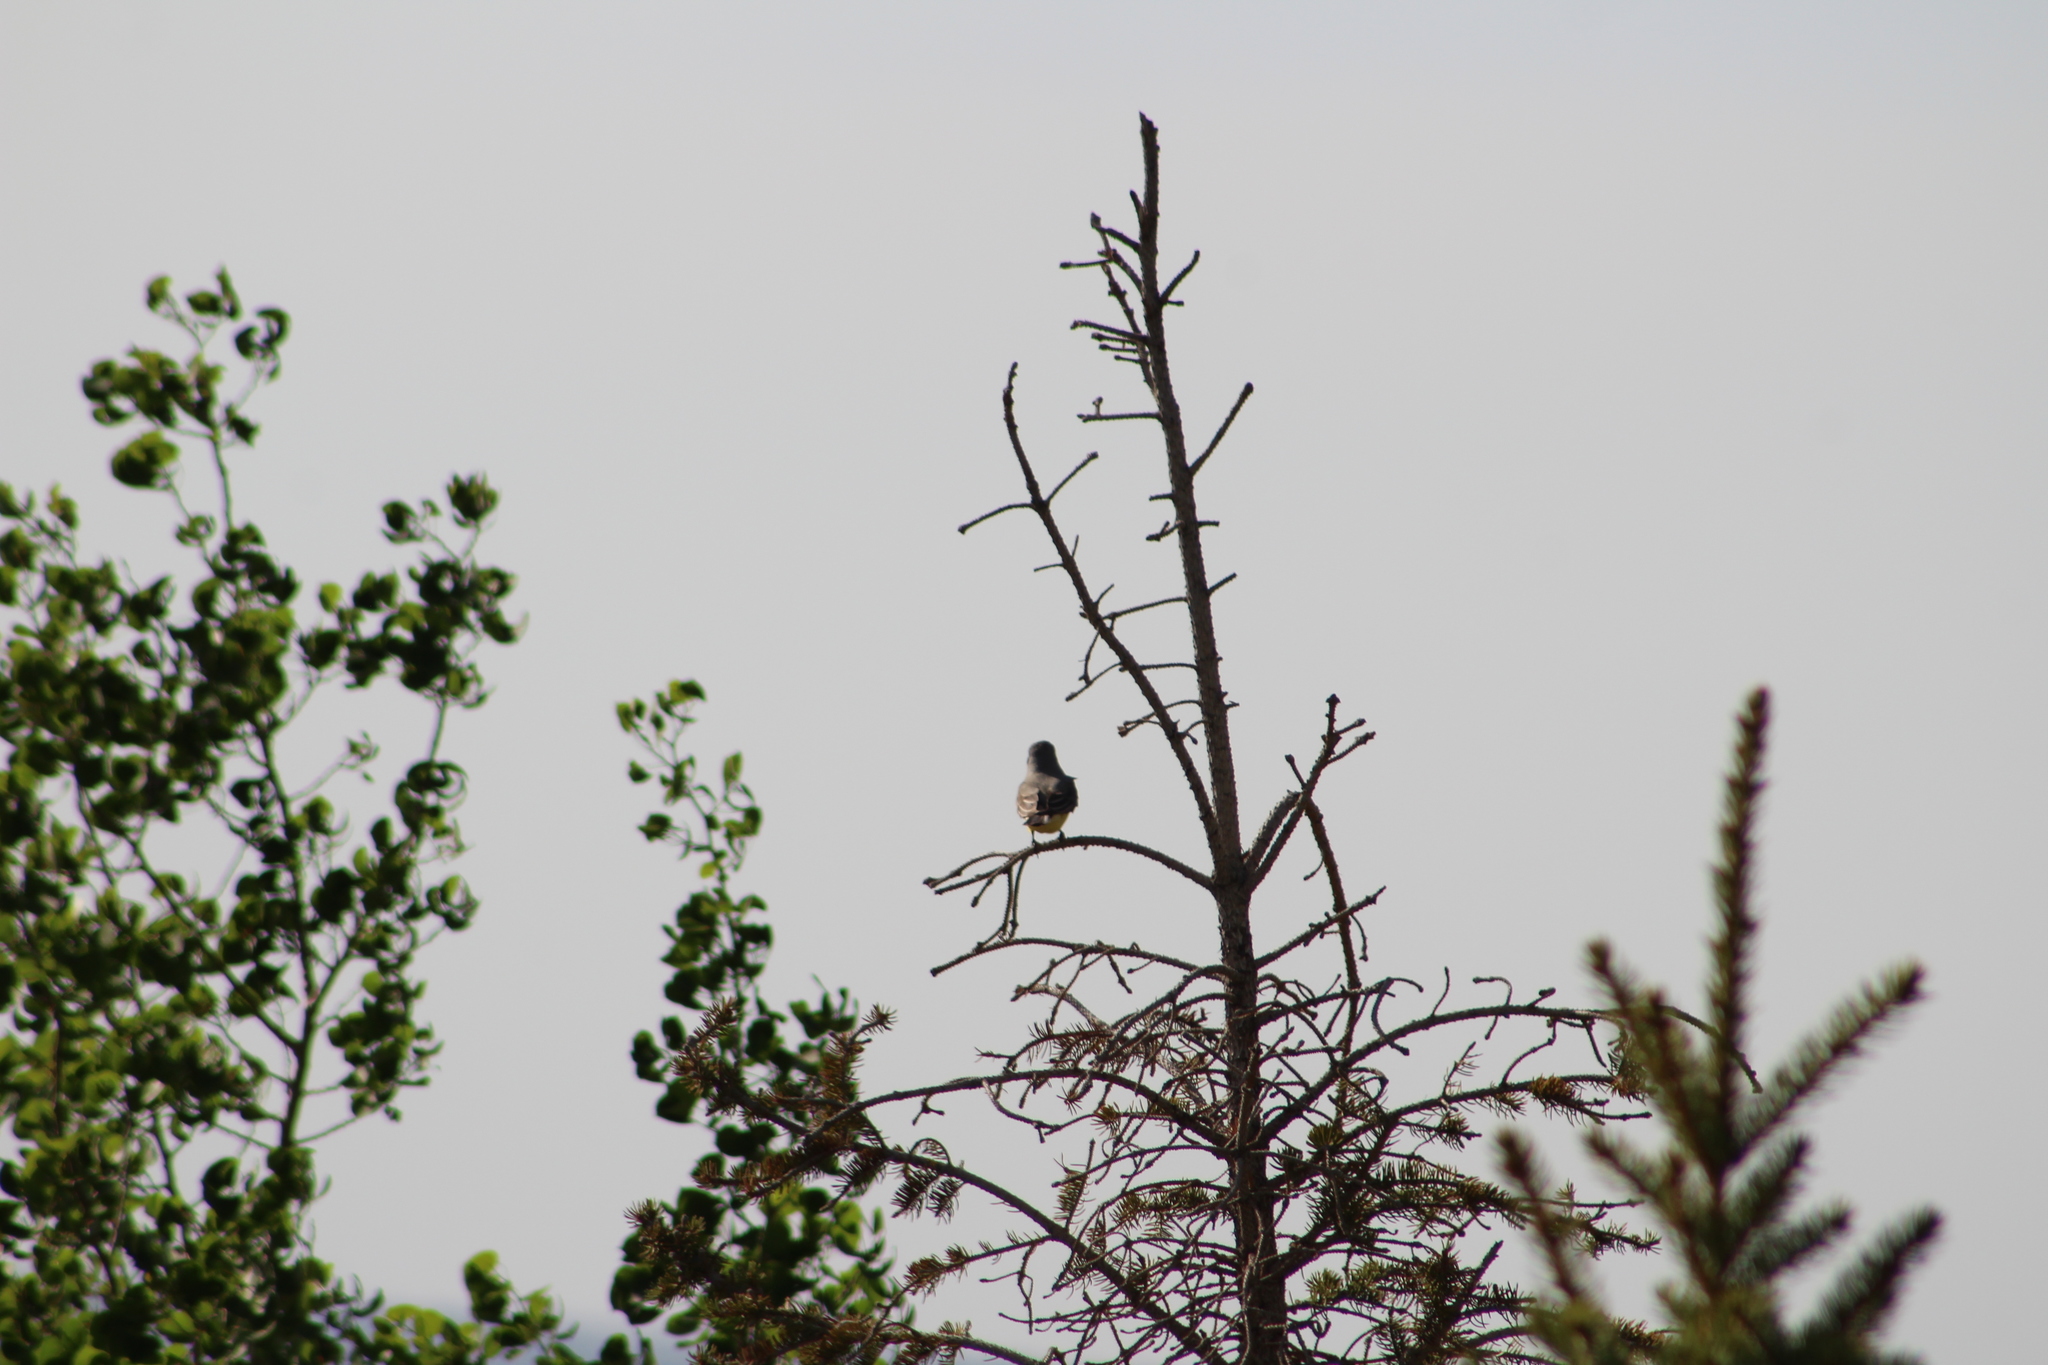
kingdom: Animalia
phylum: Chordata
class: Aves
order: Passeriformes
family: Tyrannidae
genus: Tyrannus
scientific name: Tyrannus verticalis
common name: Western kingbird
